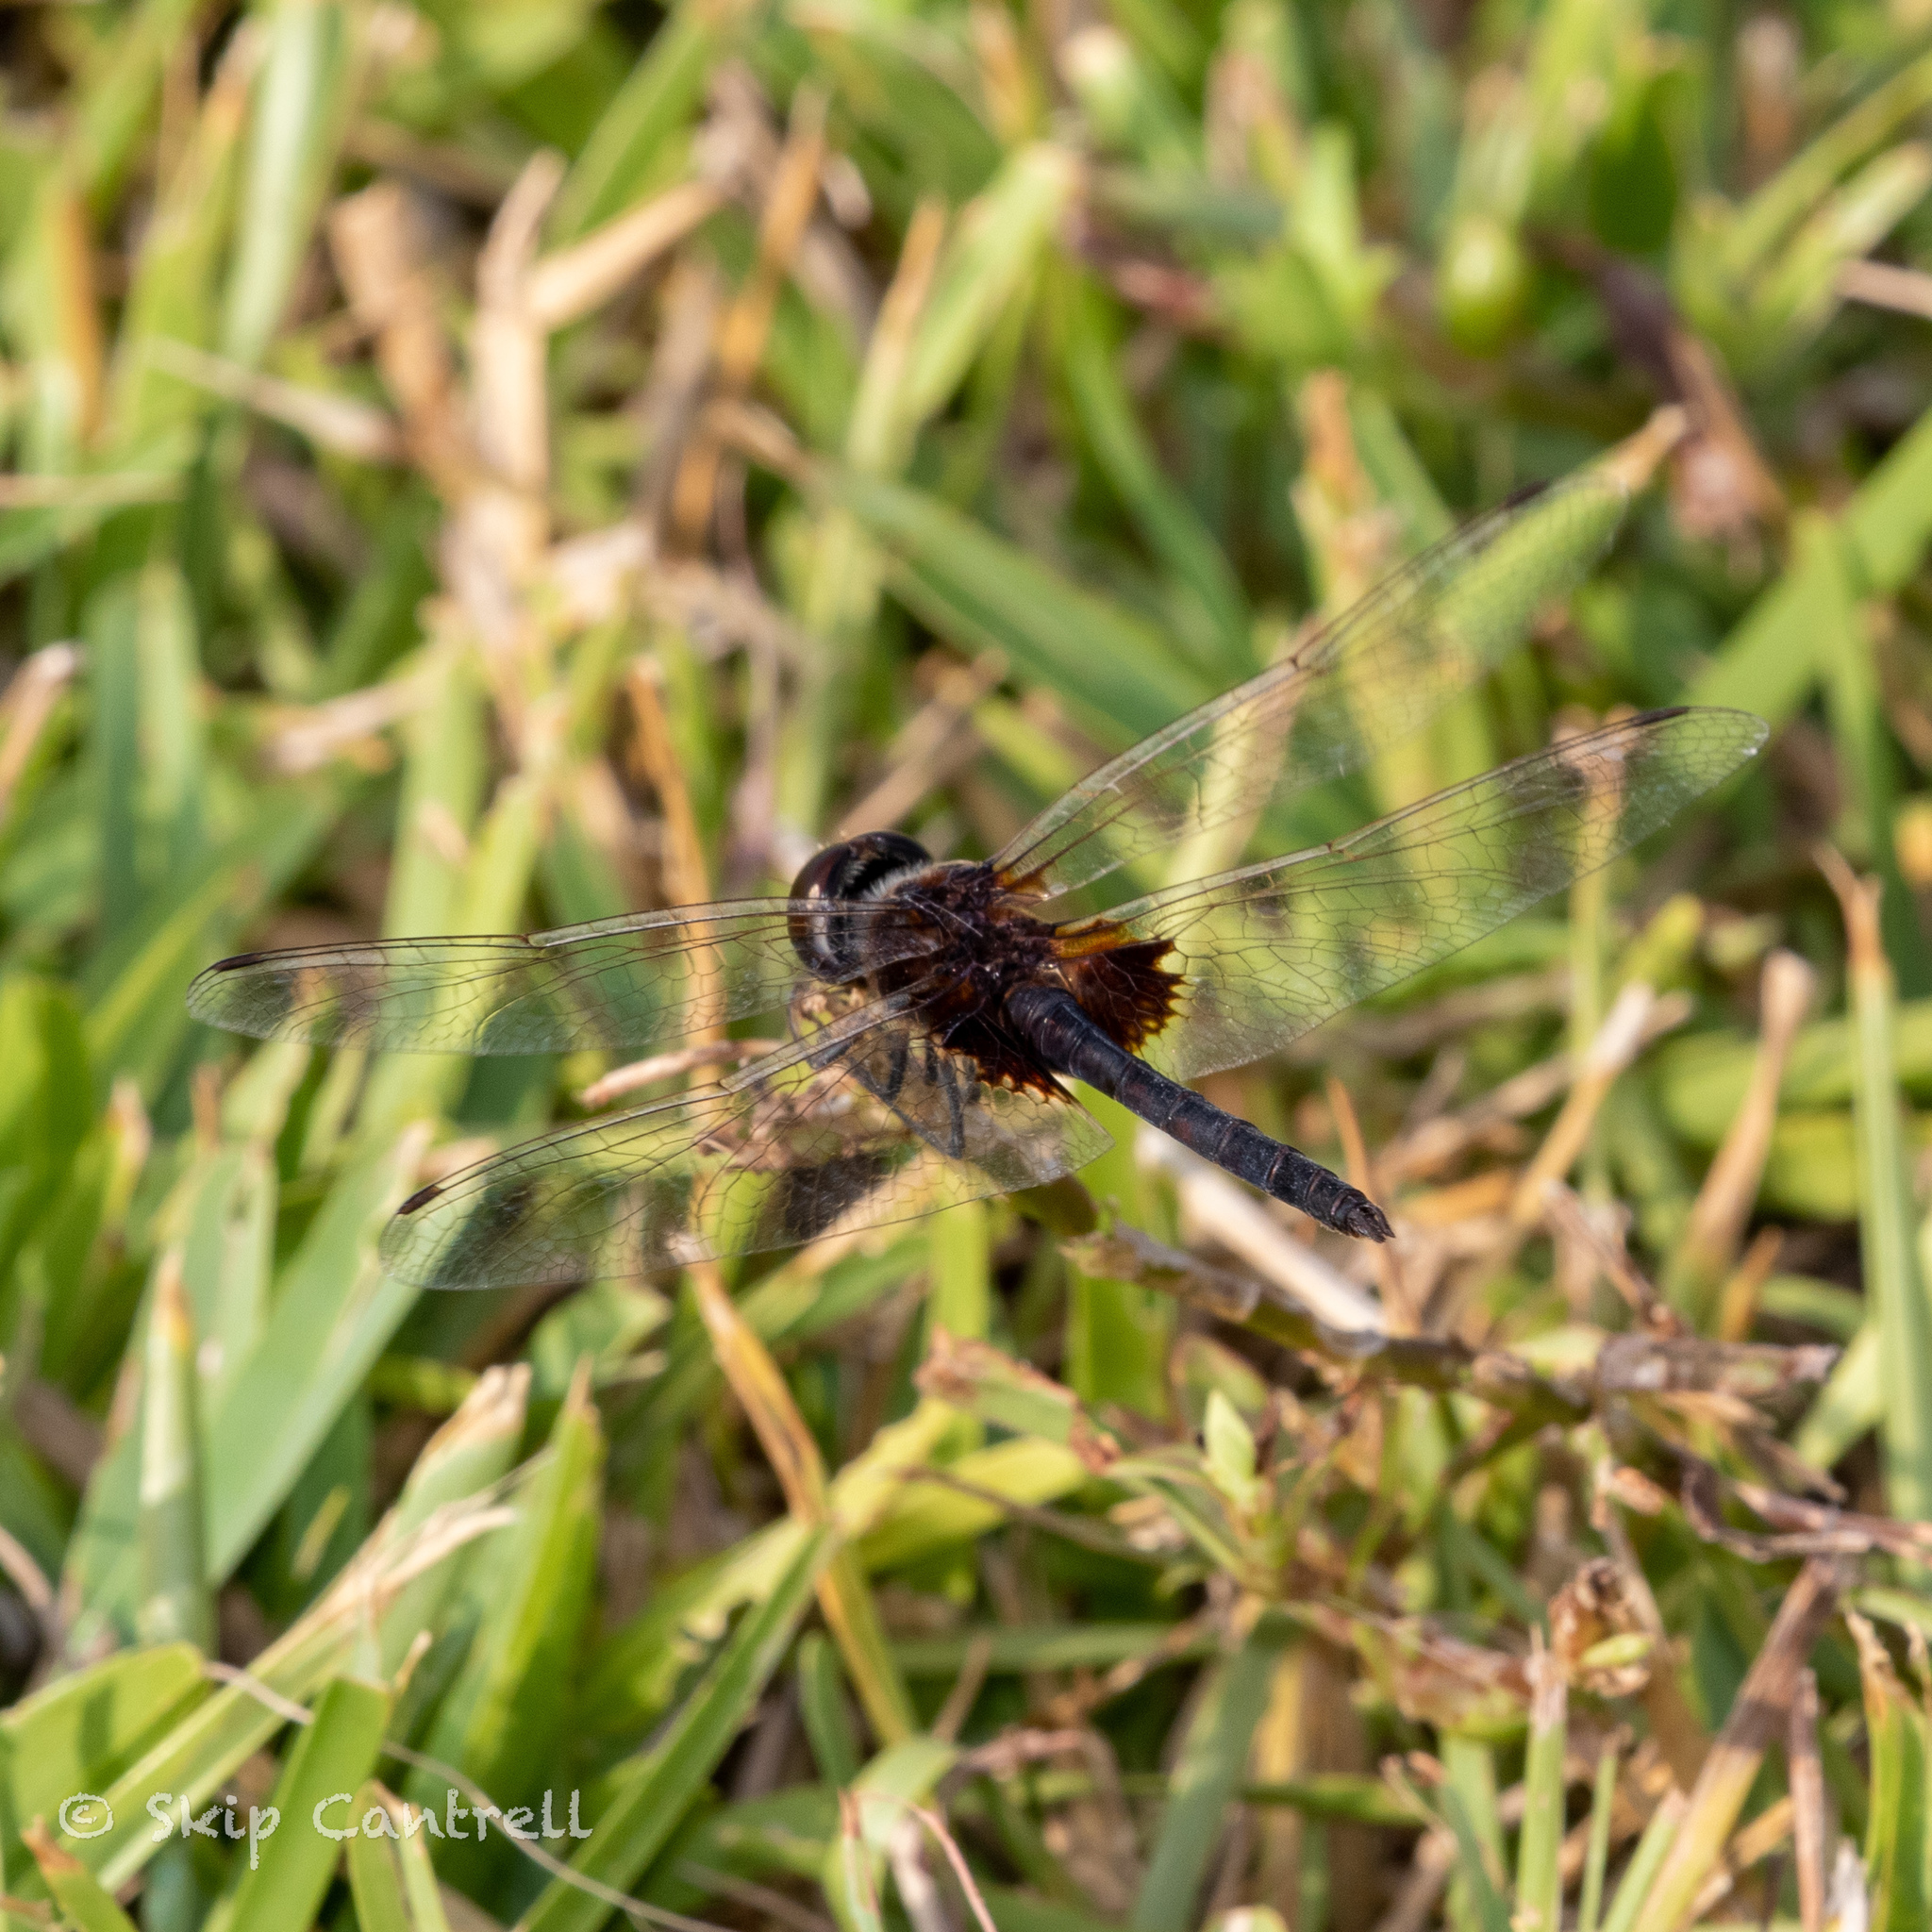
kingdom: Animalia
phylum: Arthropoda
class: Insecta
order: Odonata
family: Libellulidae
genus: Macrodiplax
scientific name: Macrodiplax balteata
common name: Marl pennant
